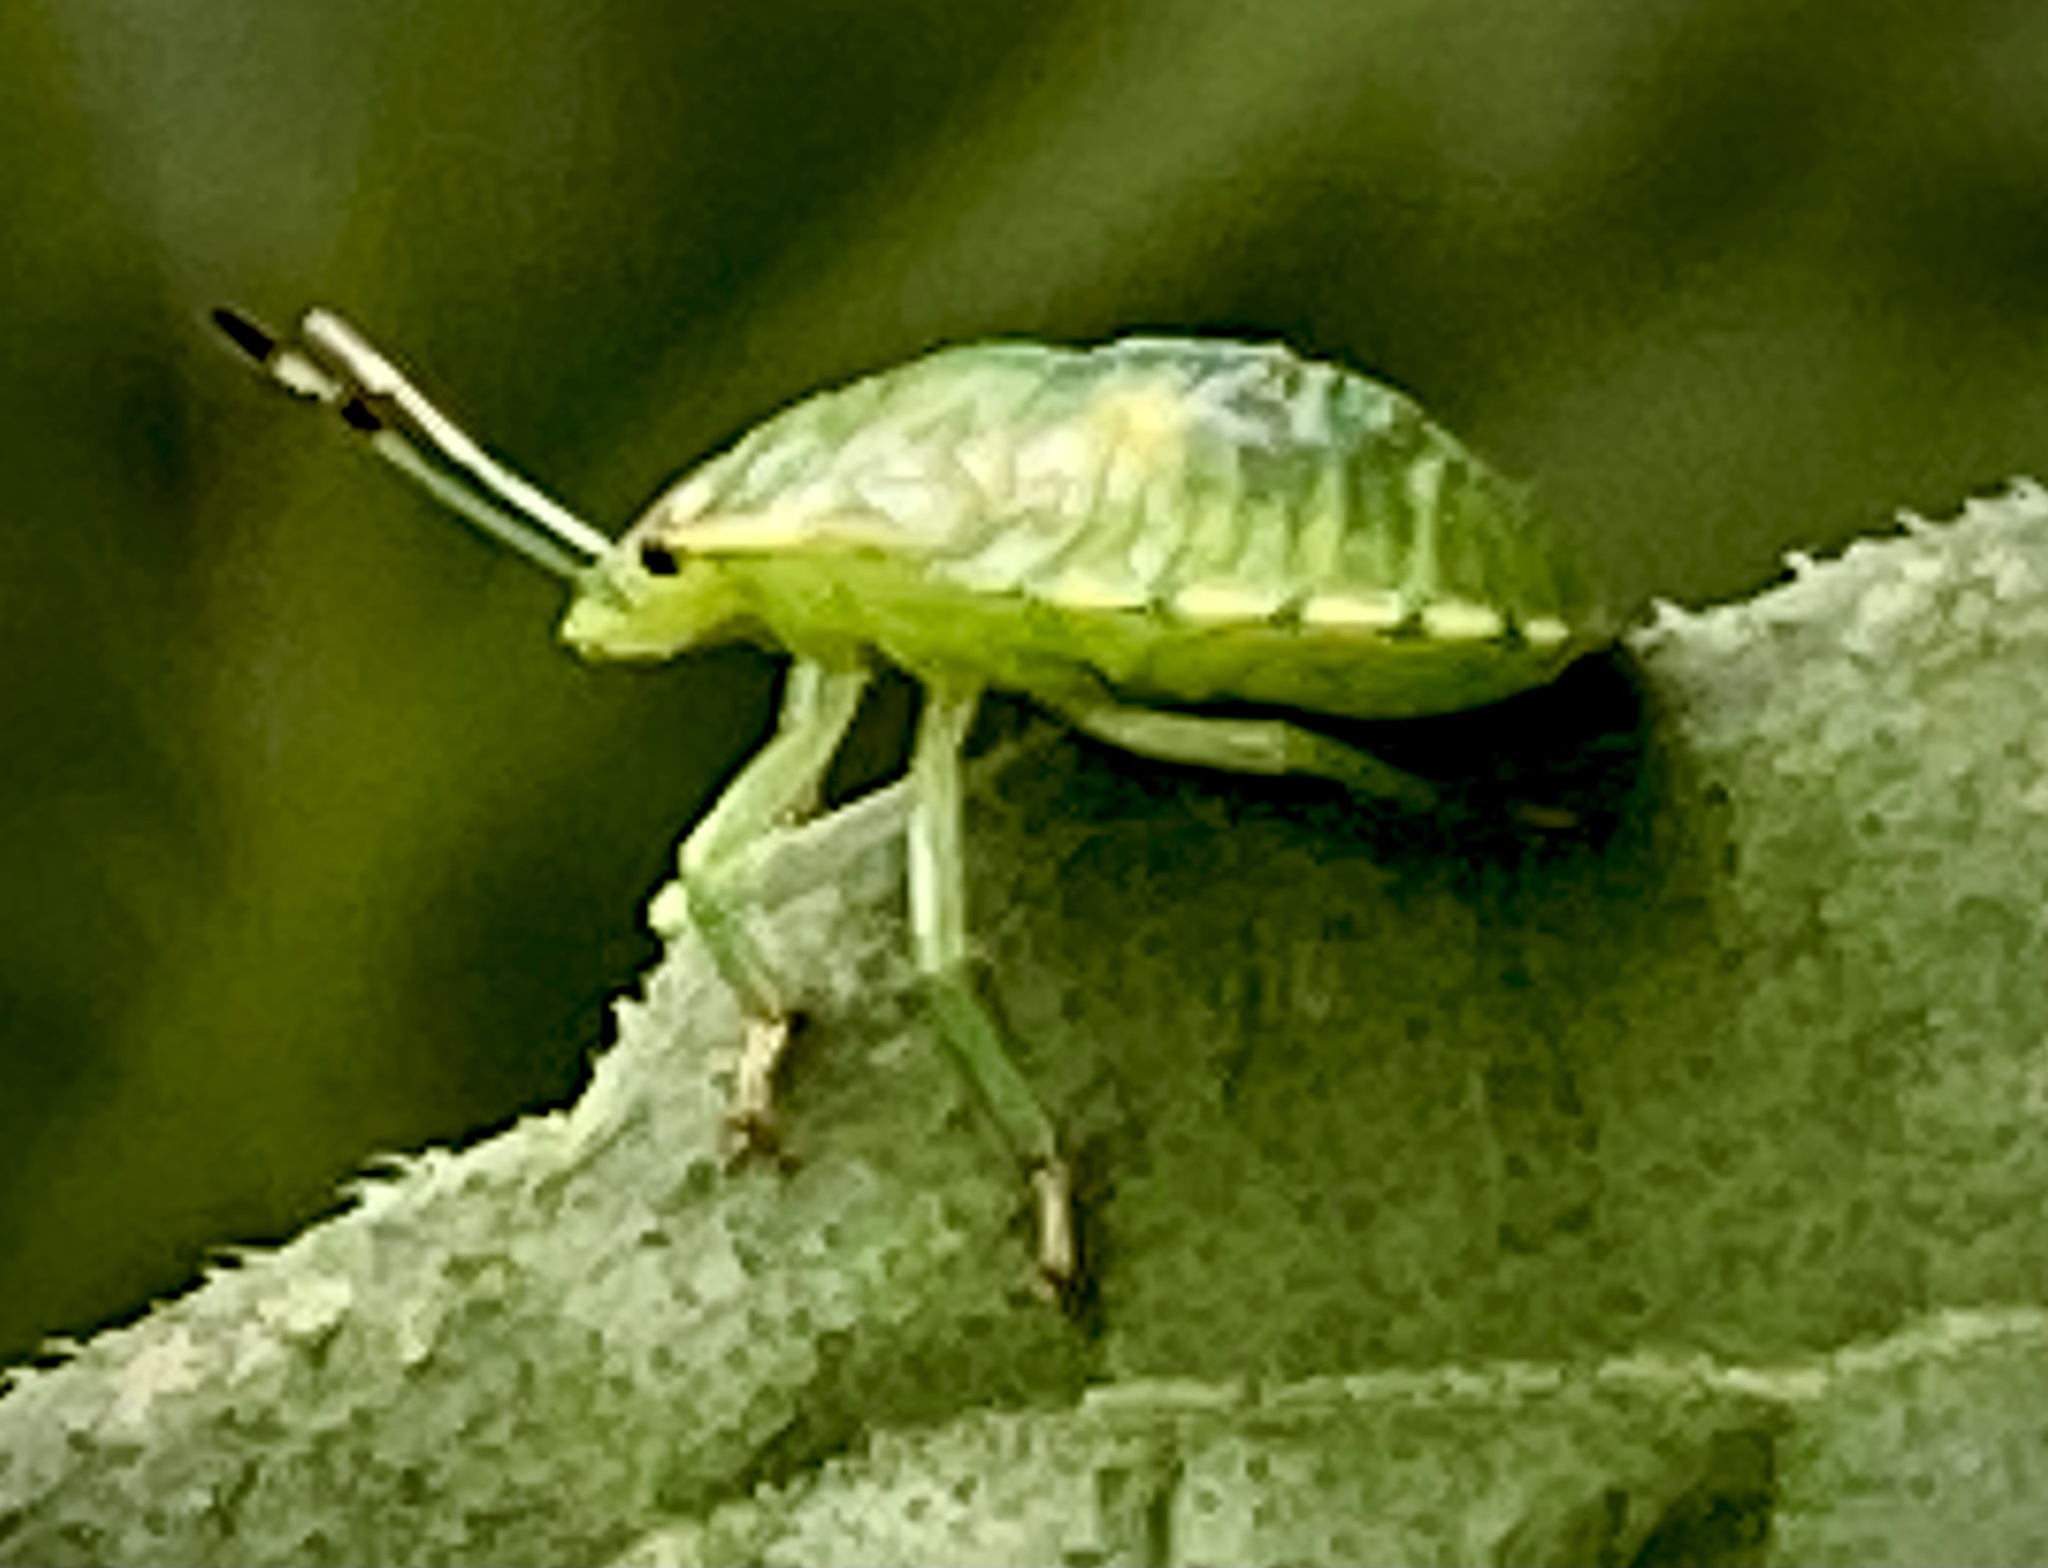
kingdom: Animalia
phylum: Arthropoda
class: Insecta
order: Hemiptera
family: Pentatomidae
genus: Chinavia
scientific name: Chinavia hilaris
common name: Green stink bug
